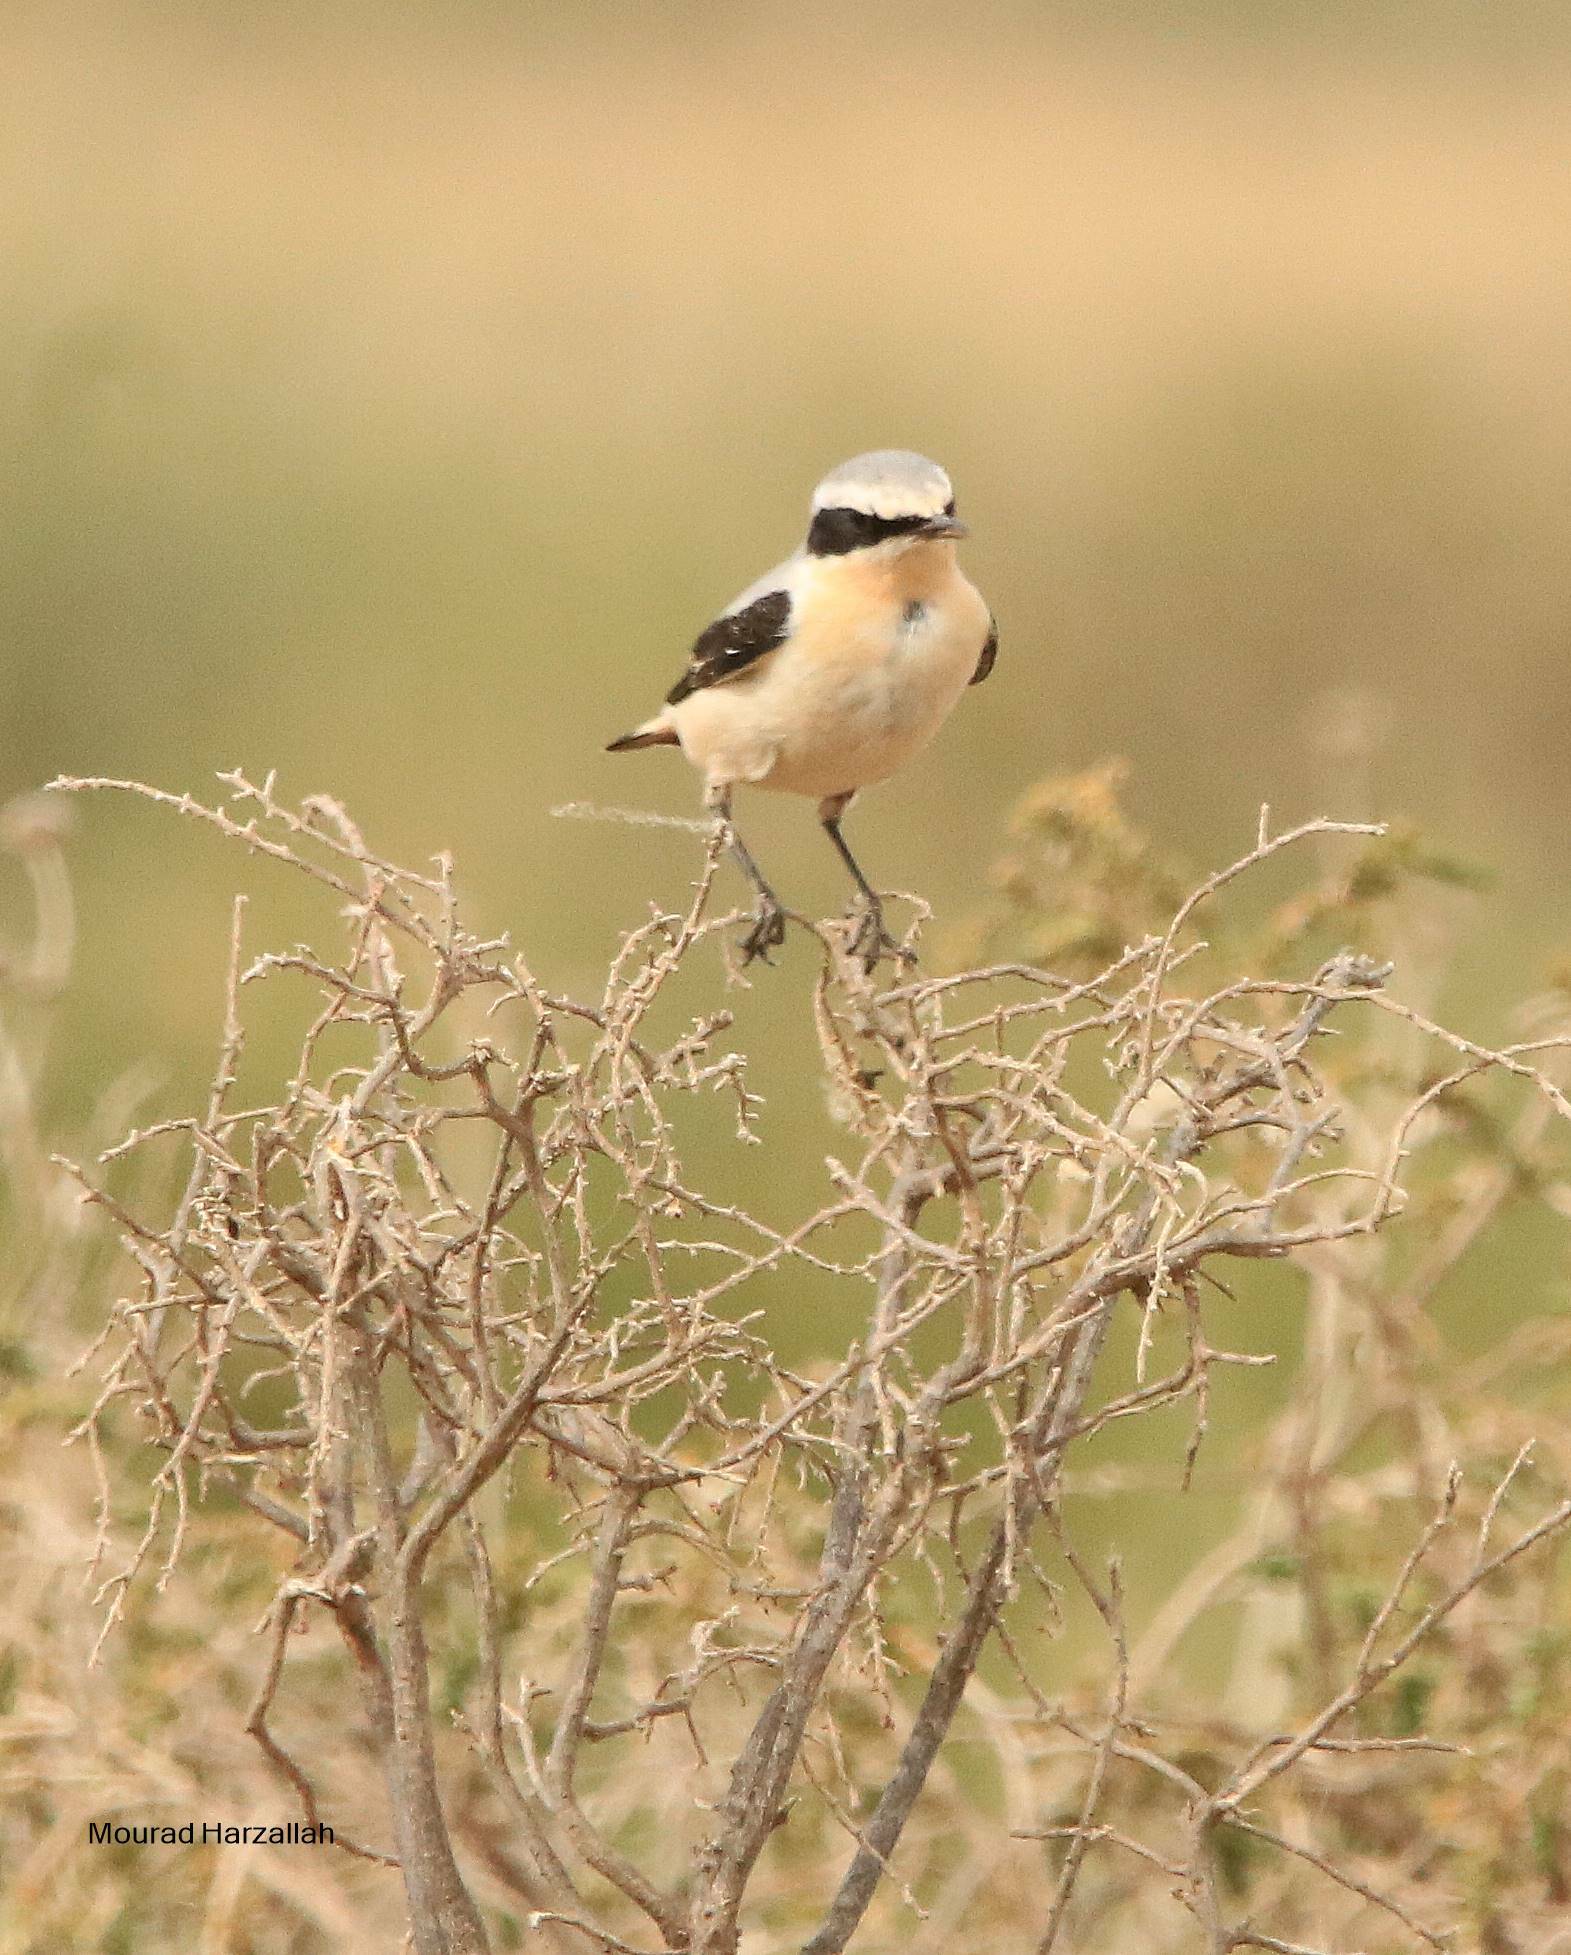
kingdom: Animalia
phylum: Chordata
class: Aves
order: Passeriformes
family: Muscicapidae
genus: Oenanthe
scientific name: Oenanthe oenanthe
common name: Northern wheatear
